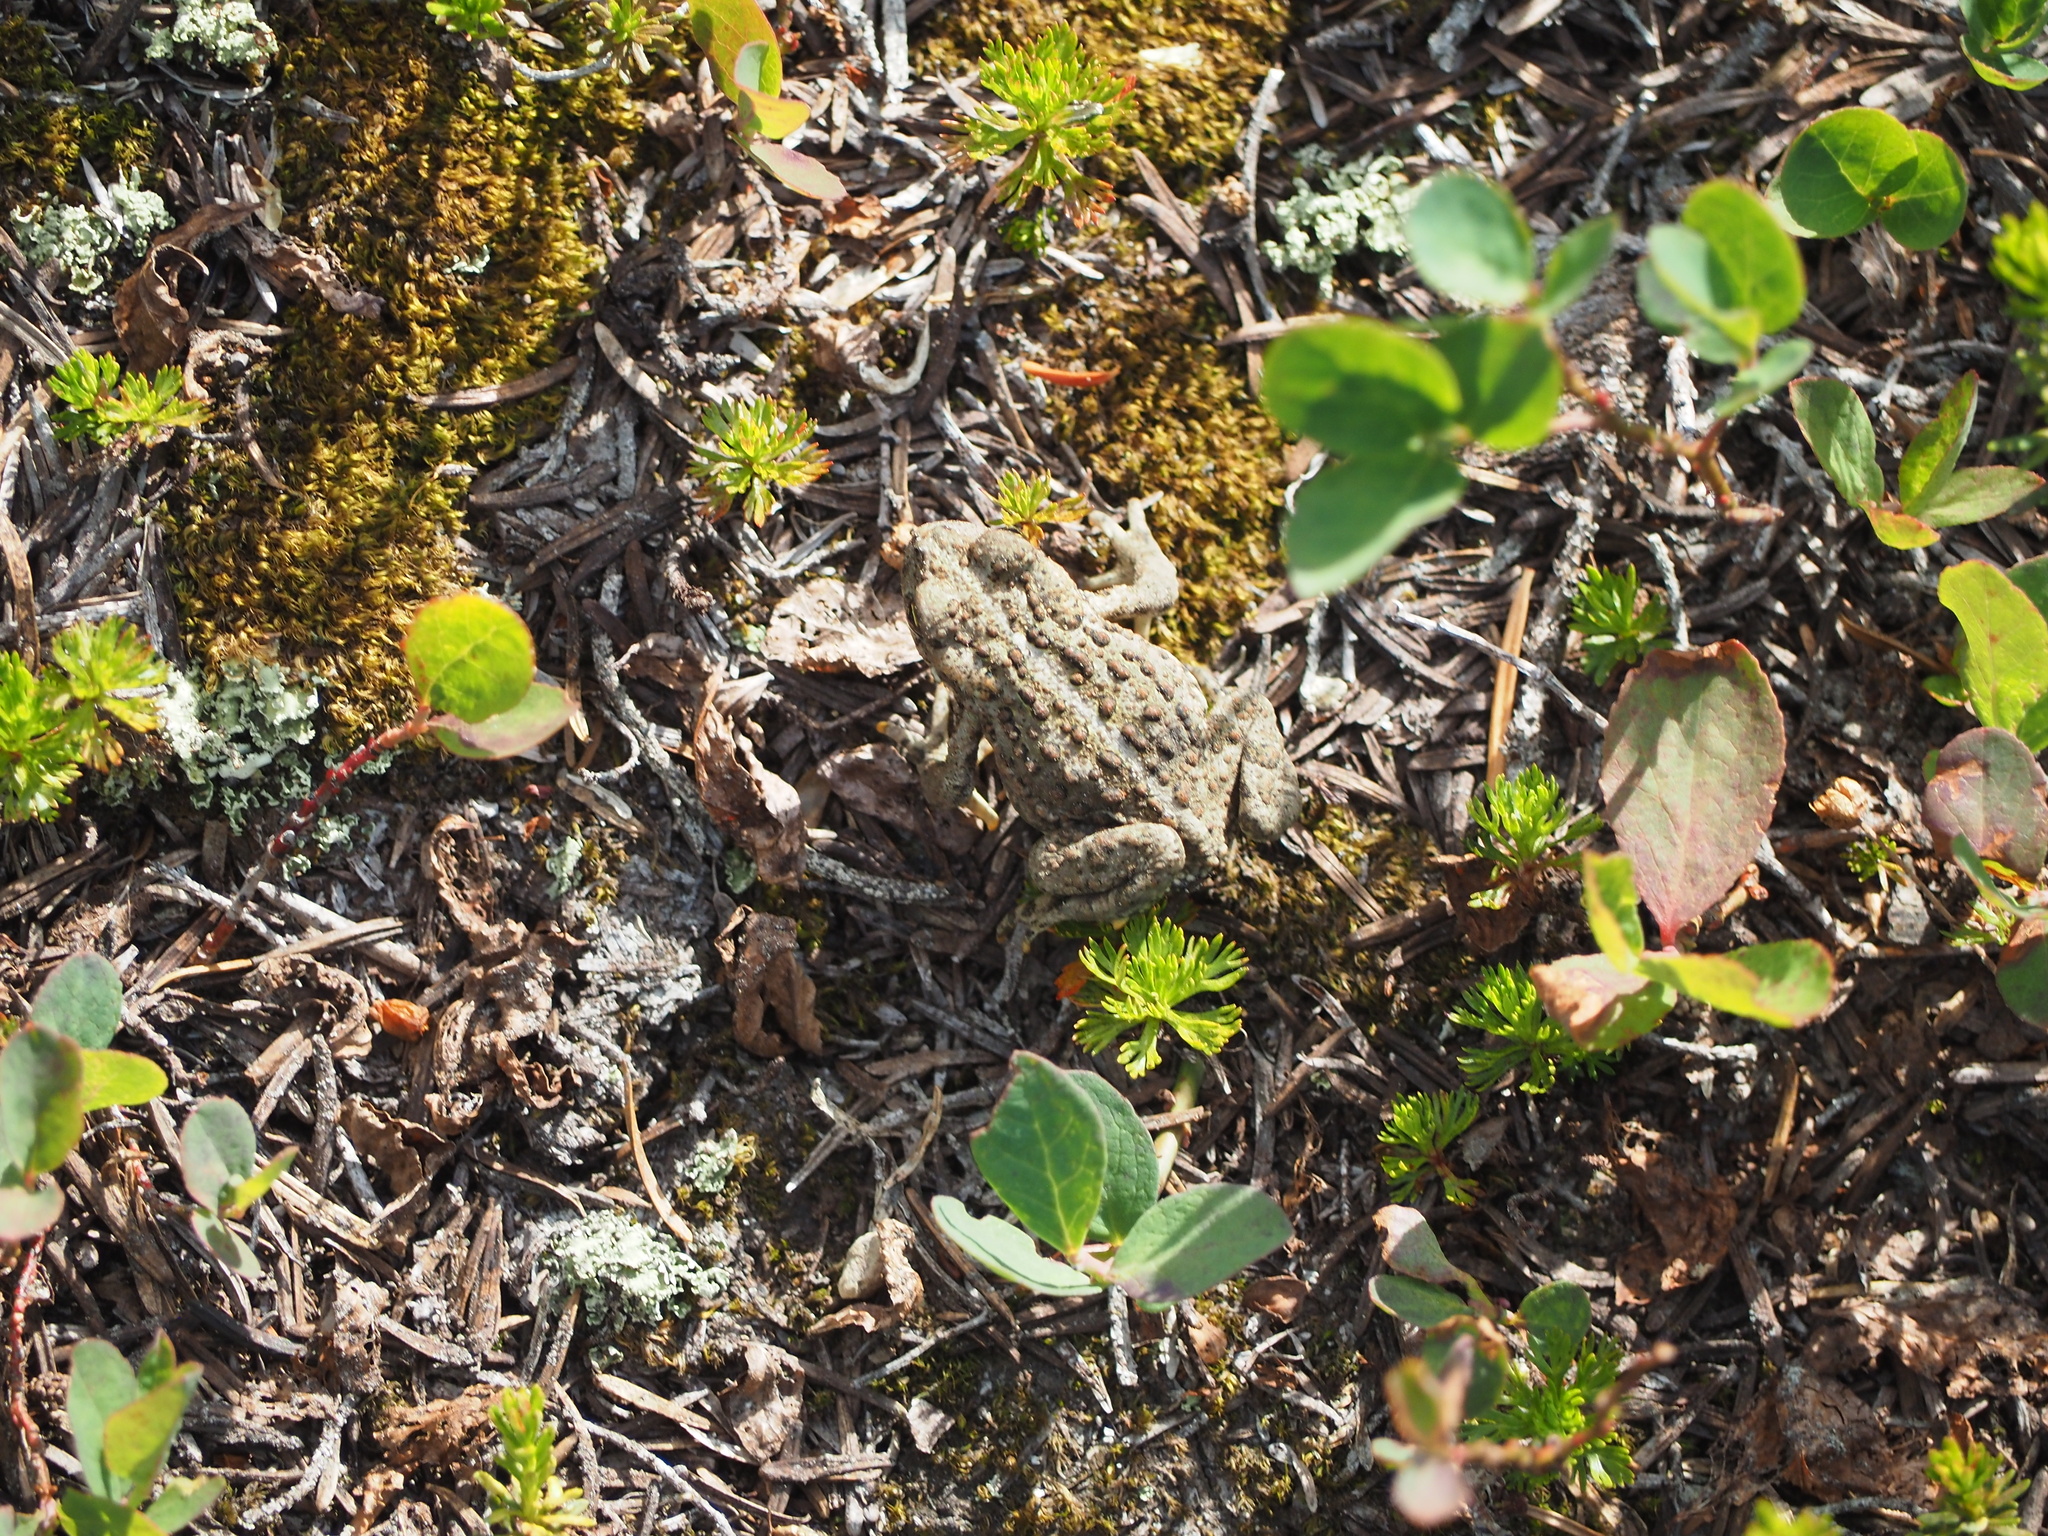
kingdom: Animalia
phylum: Chordata
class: Amphibia
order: Anura
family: Bufonidae
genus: Anaxyrus
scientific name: Anaxyrus boreas
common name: Western toad
